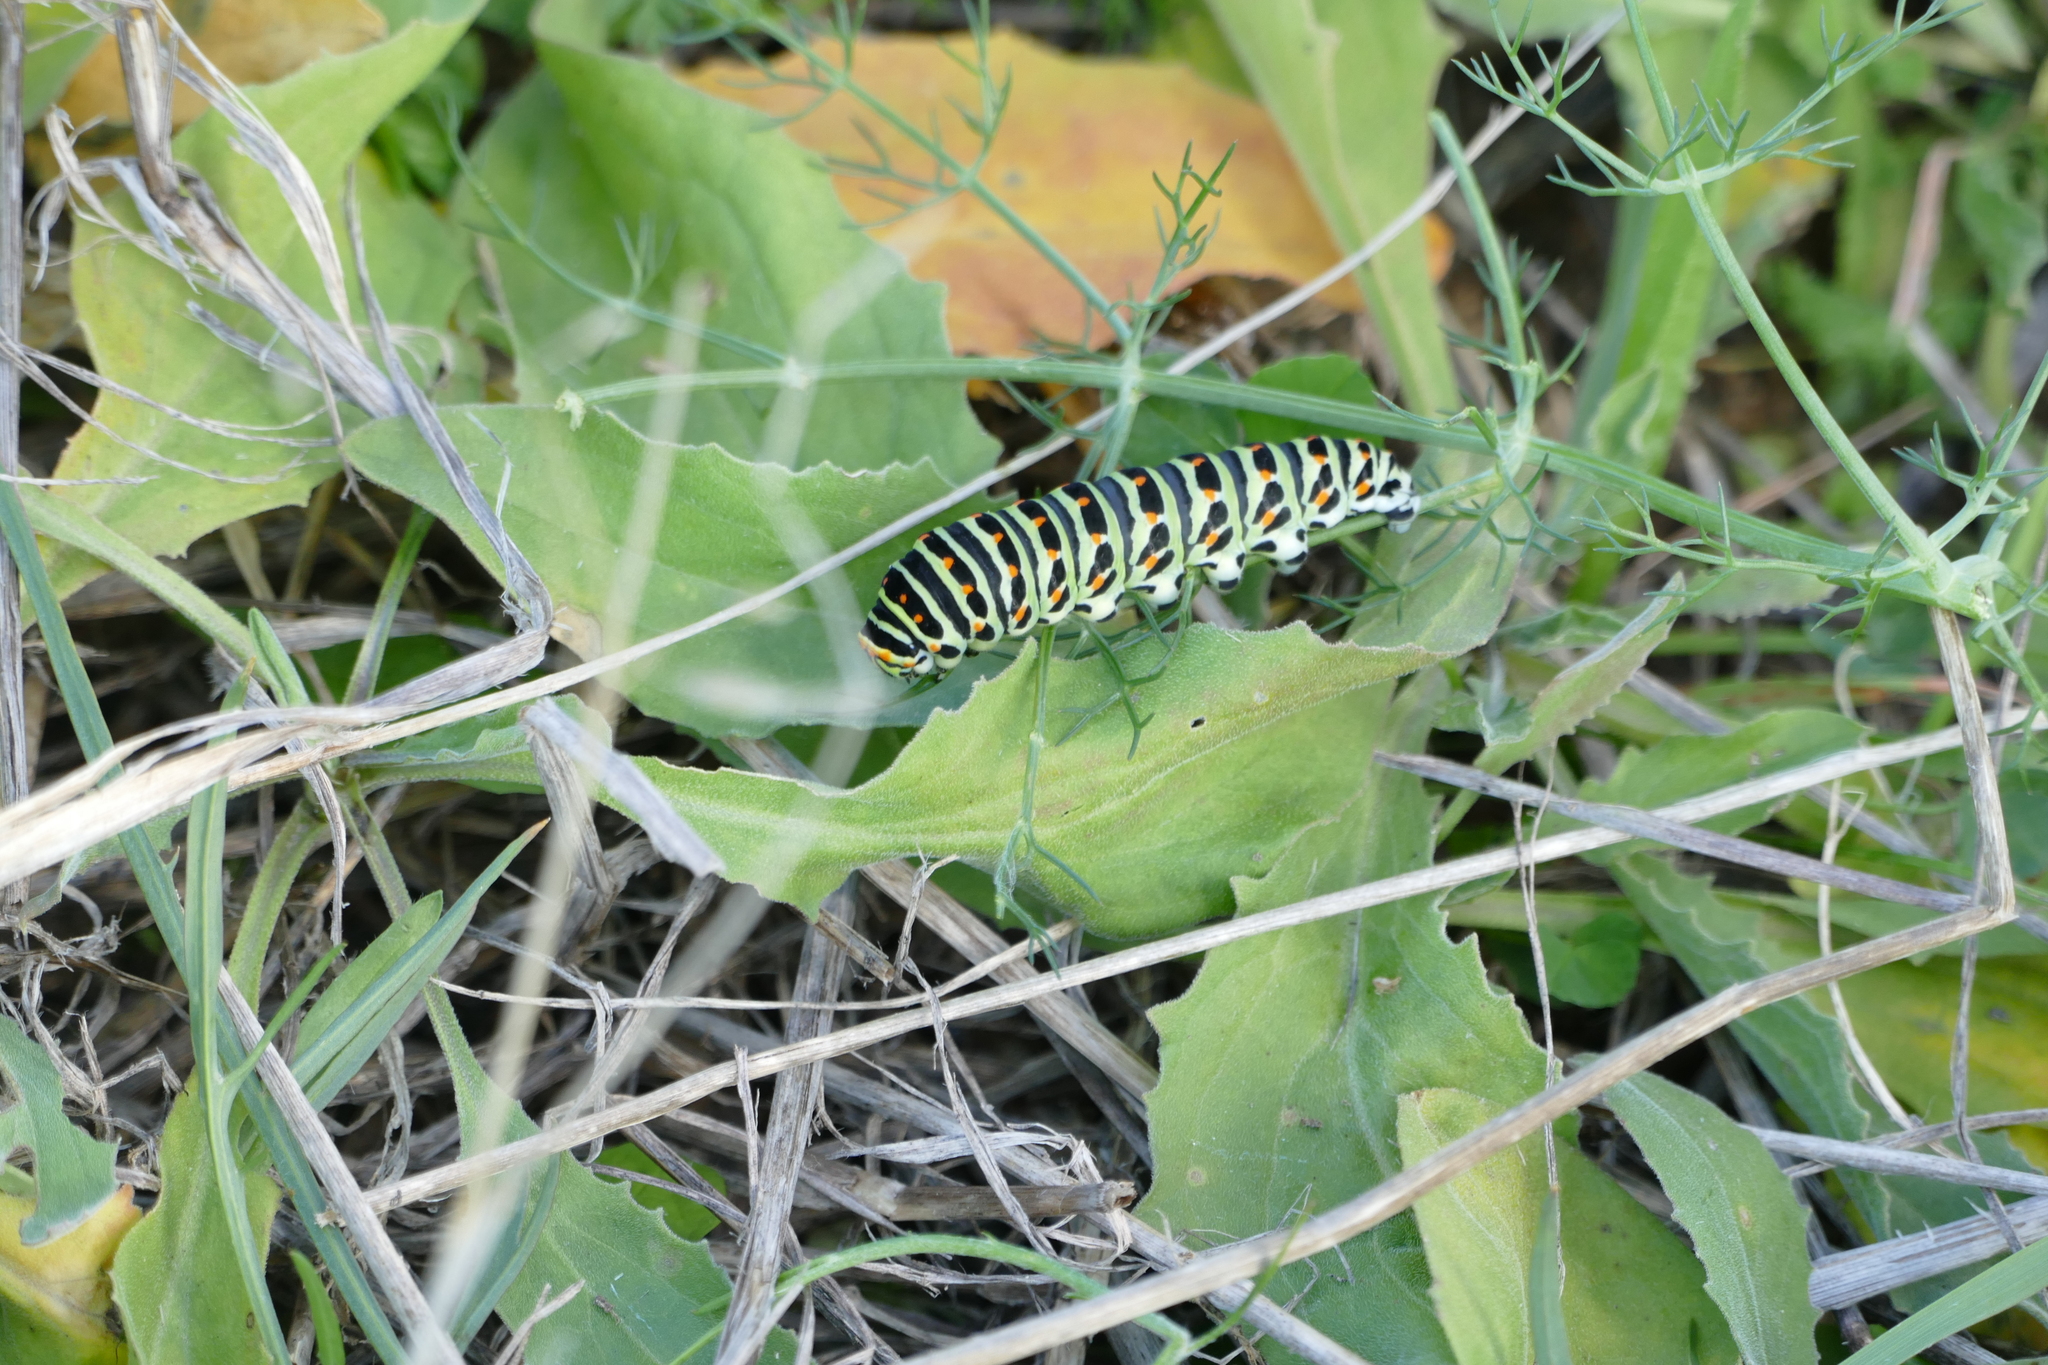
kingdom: Animalia
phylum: Arthropoda
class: Insecta
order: Lepidoptera
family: Papilionidae
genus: Papilio
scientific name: Papilio machaon
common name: Swallowtail
